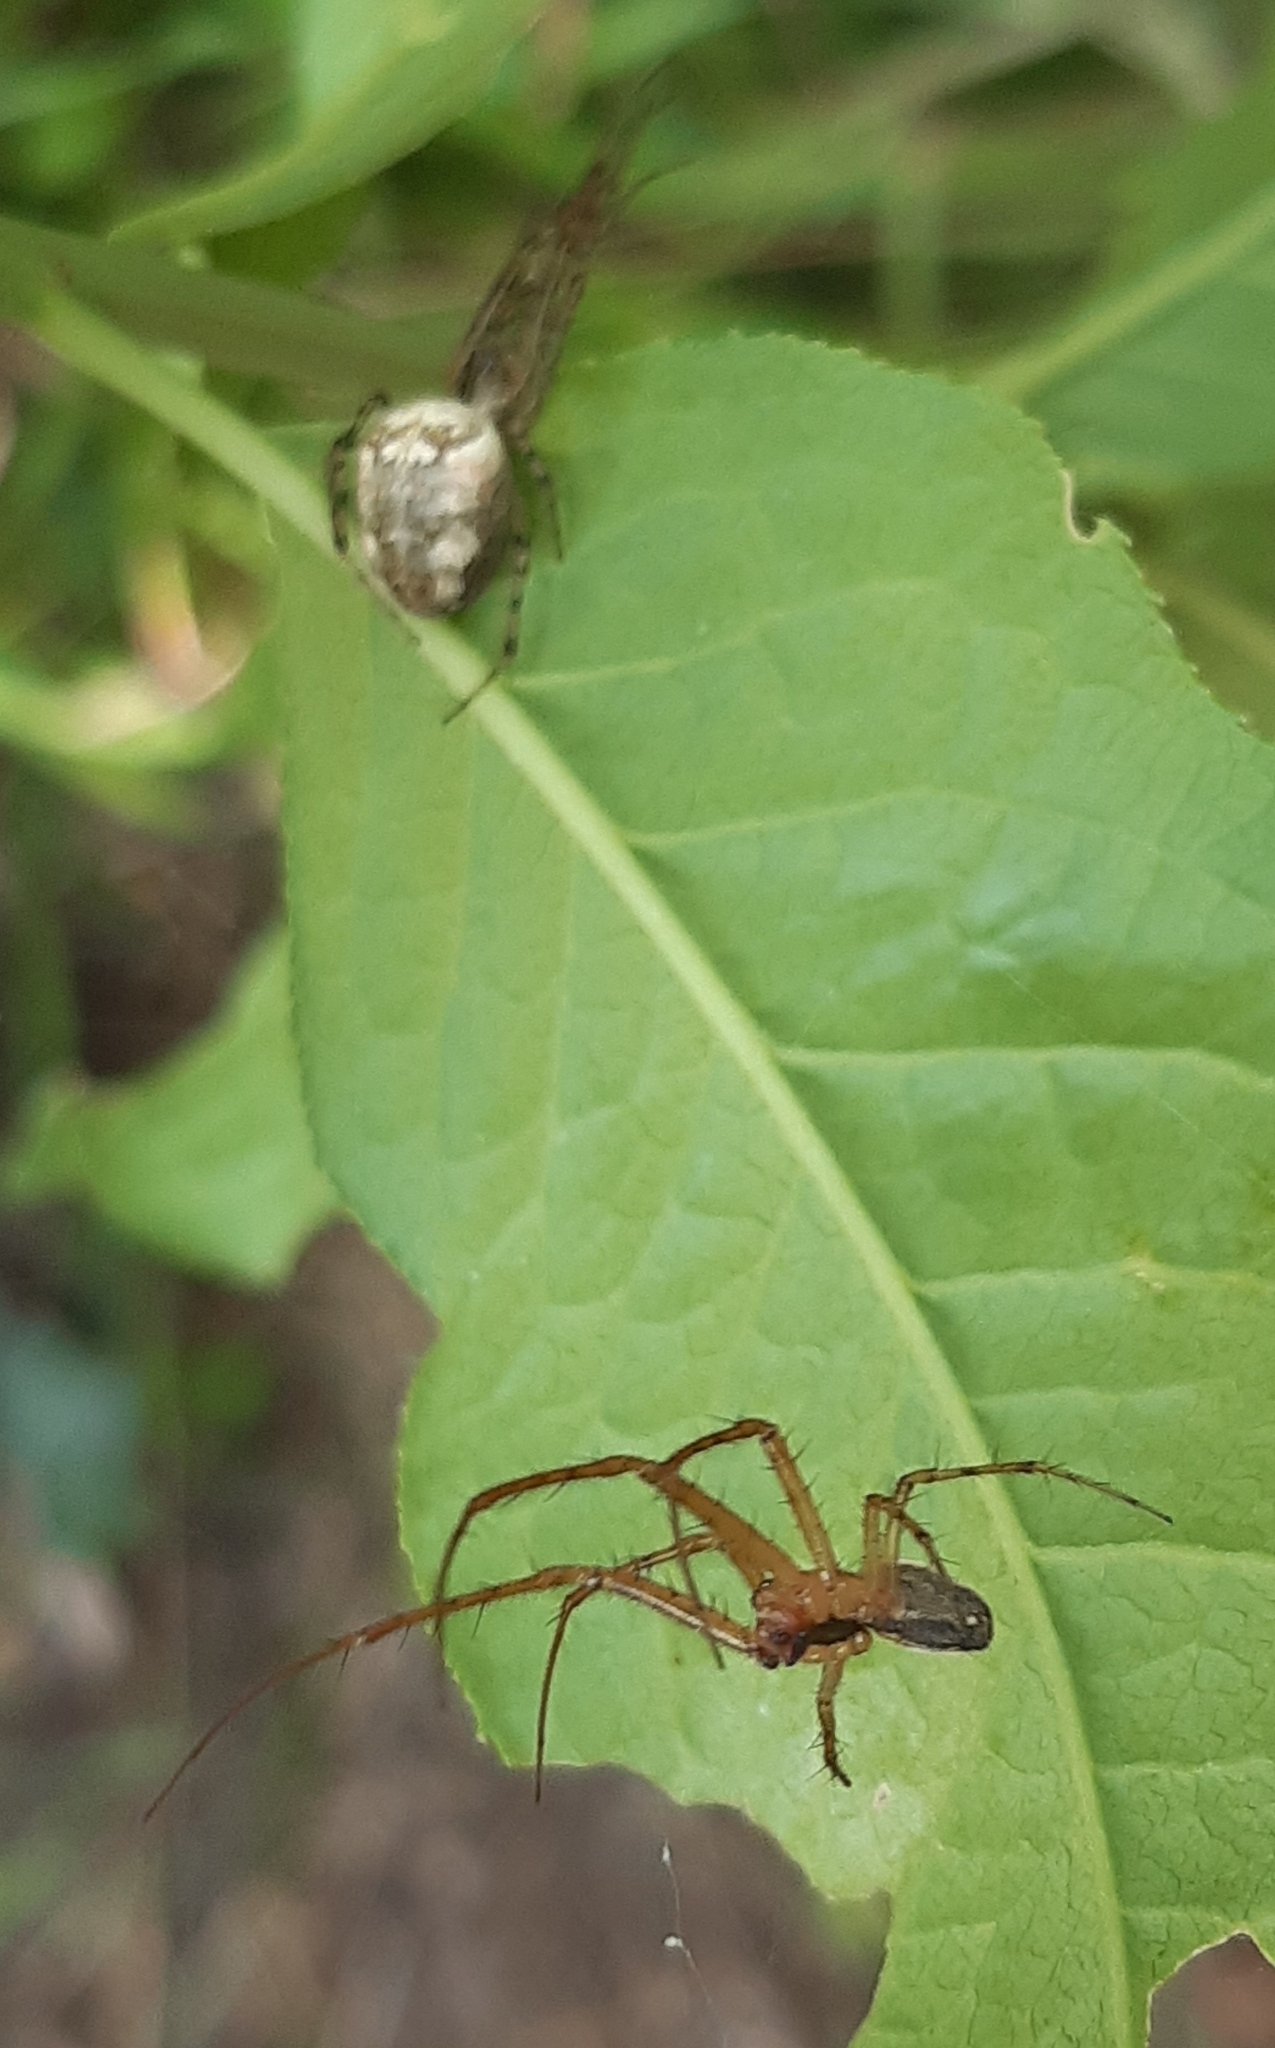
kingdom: Animalia
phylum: Arthropoda
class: Arachnida
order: Araneae
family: Tetragnathidae
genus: Metellina
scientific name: Metellina segmentata
